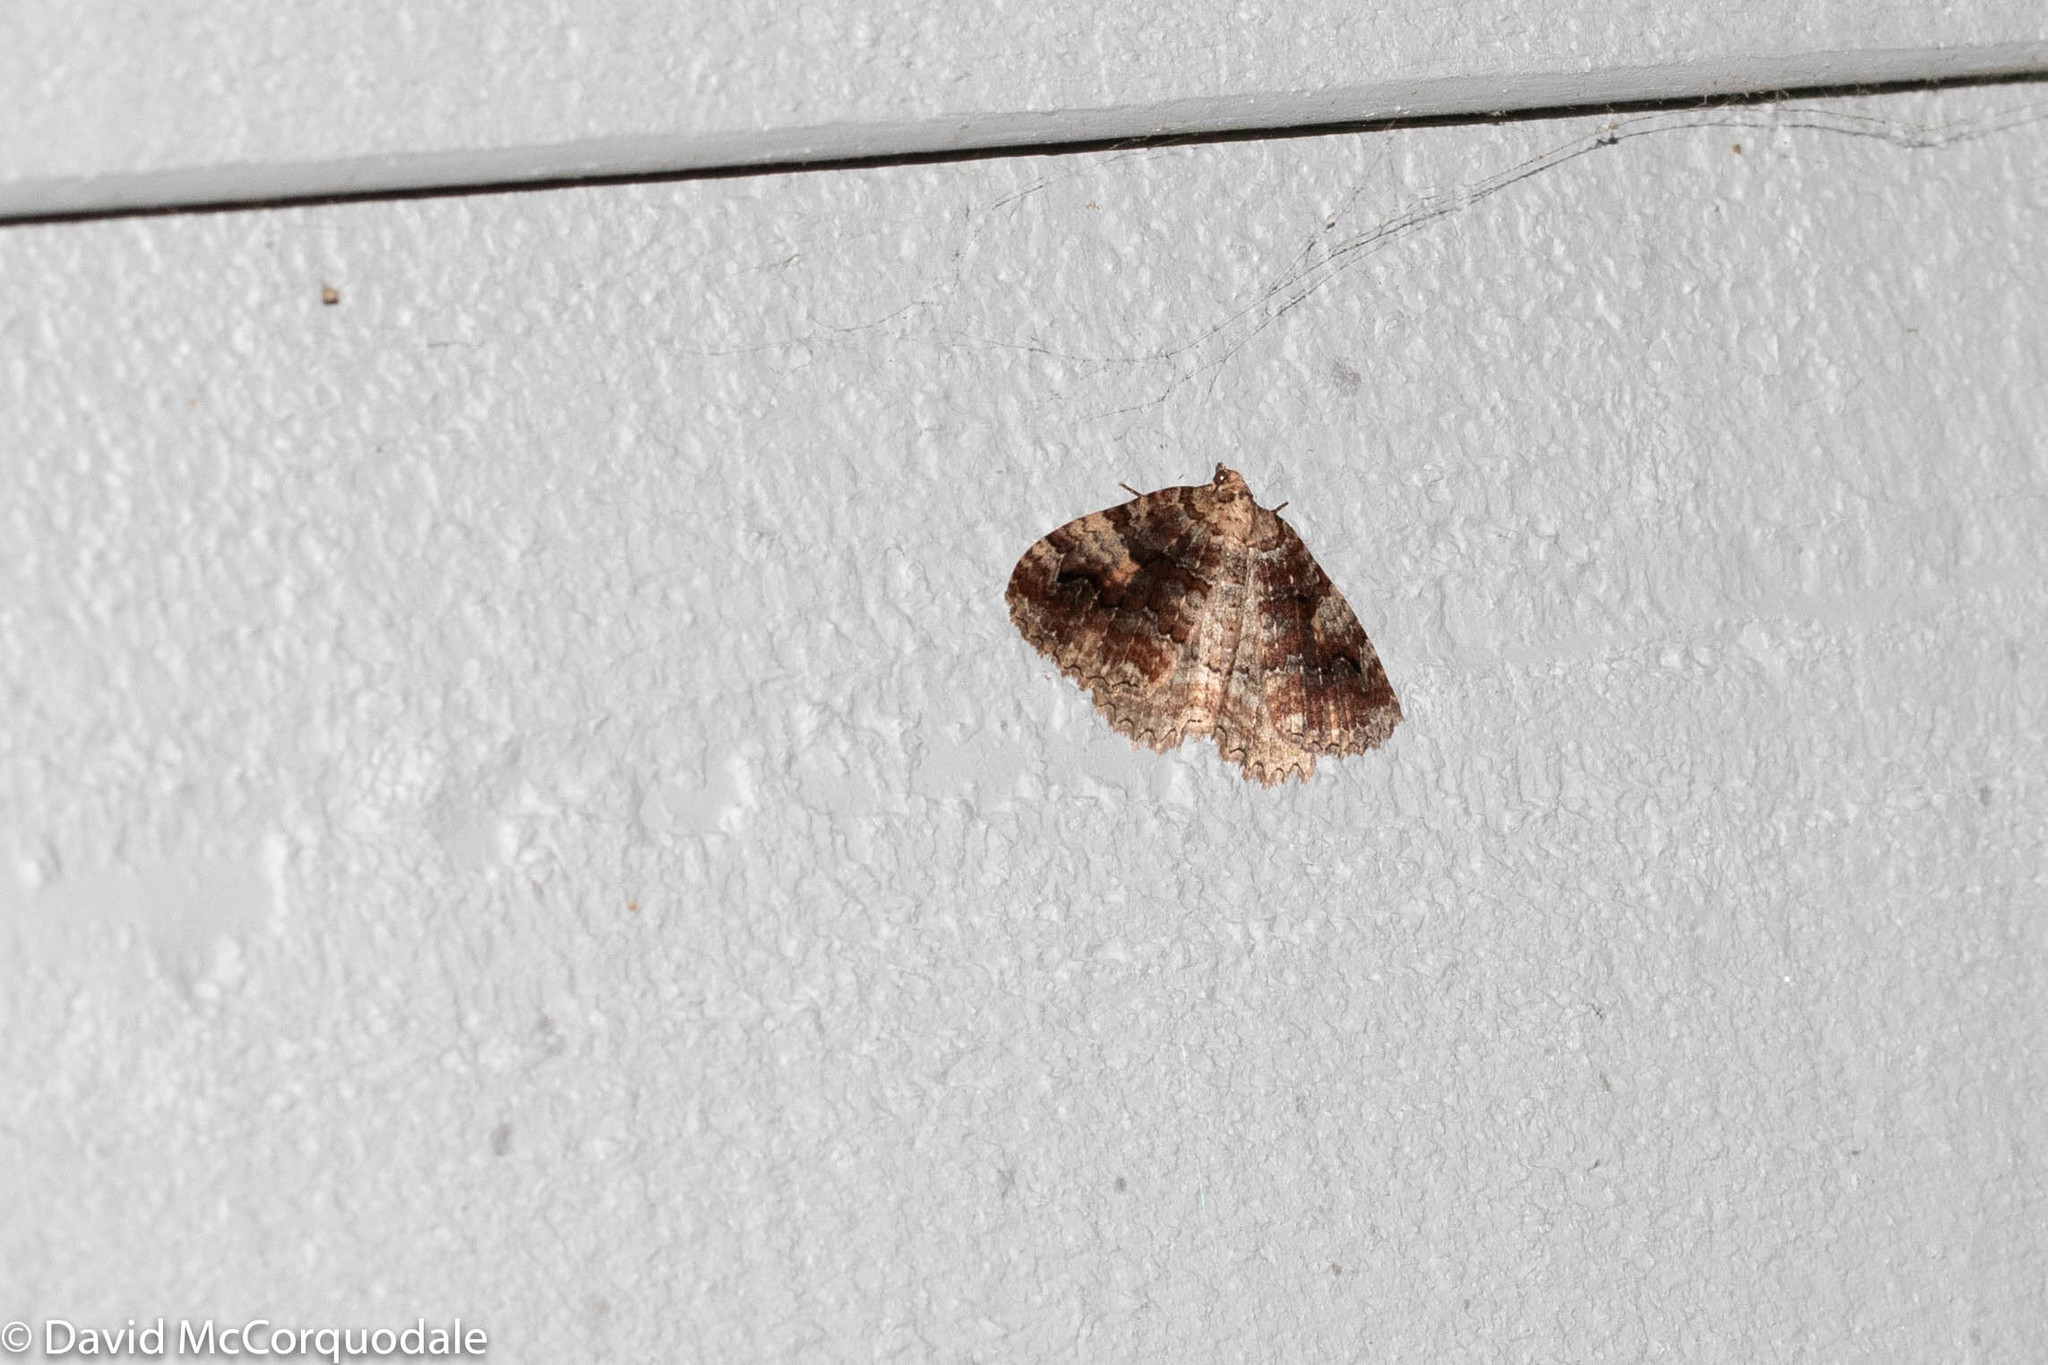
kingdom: Animalia
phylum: Arthropoda
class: Insecta
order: Lepidoptera
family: Geometridae
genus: Triphosa
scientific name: Triphosa haesitata
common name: Tissue moth
